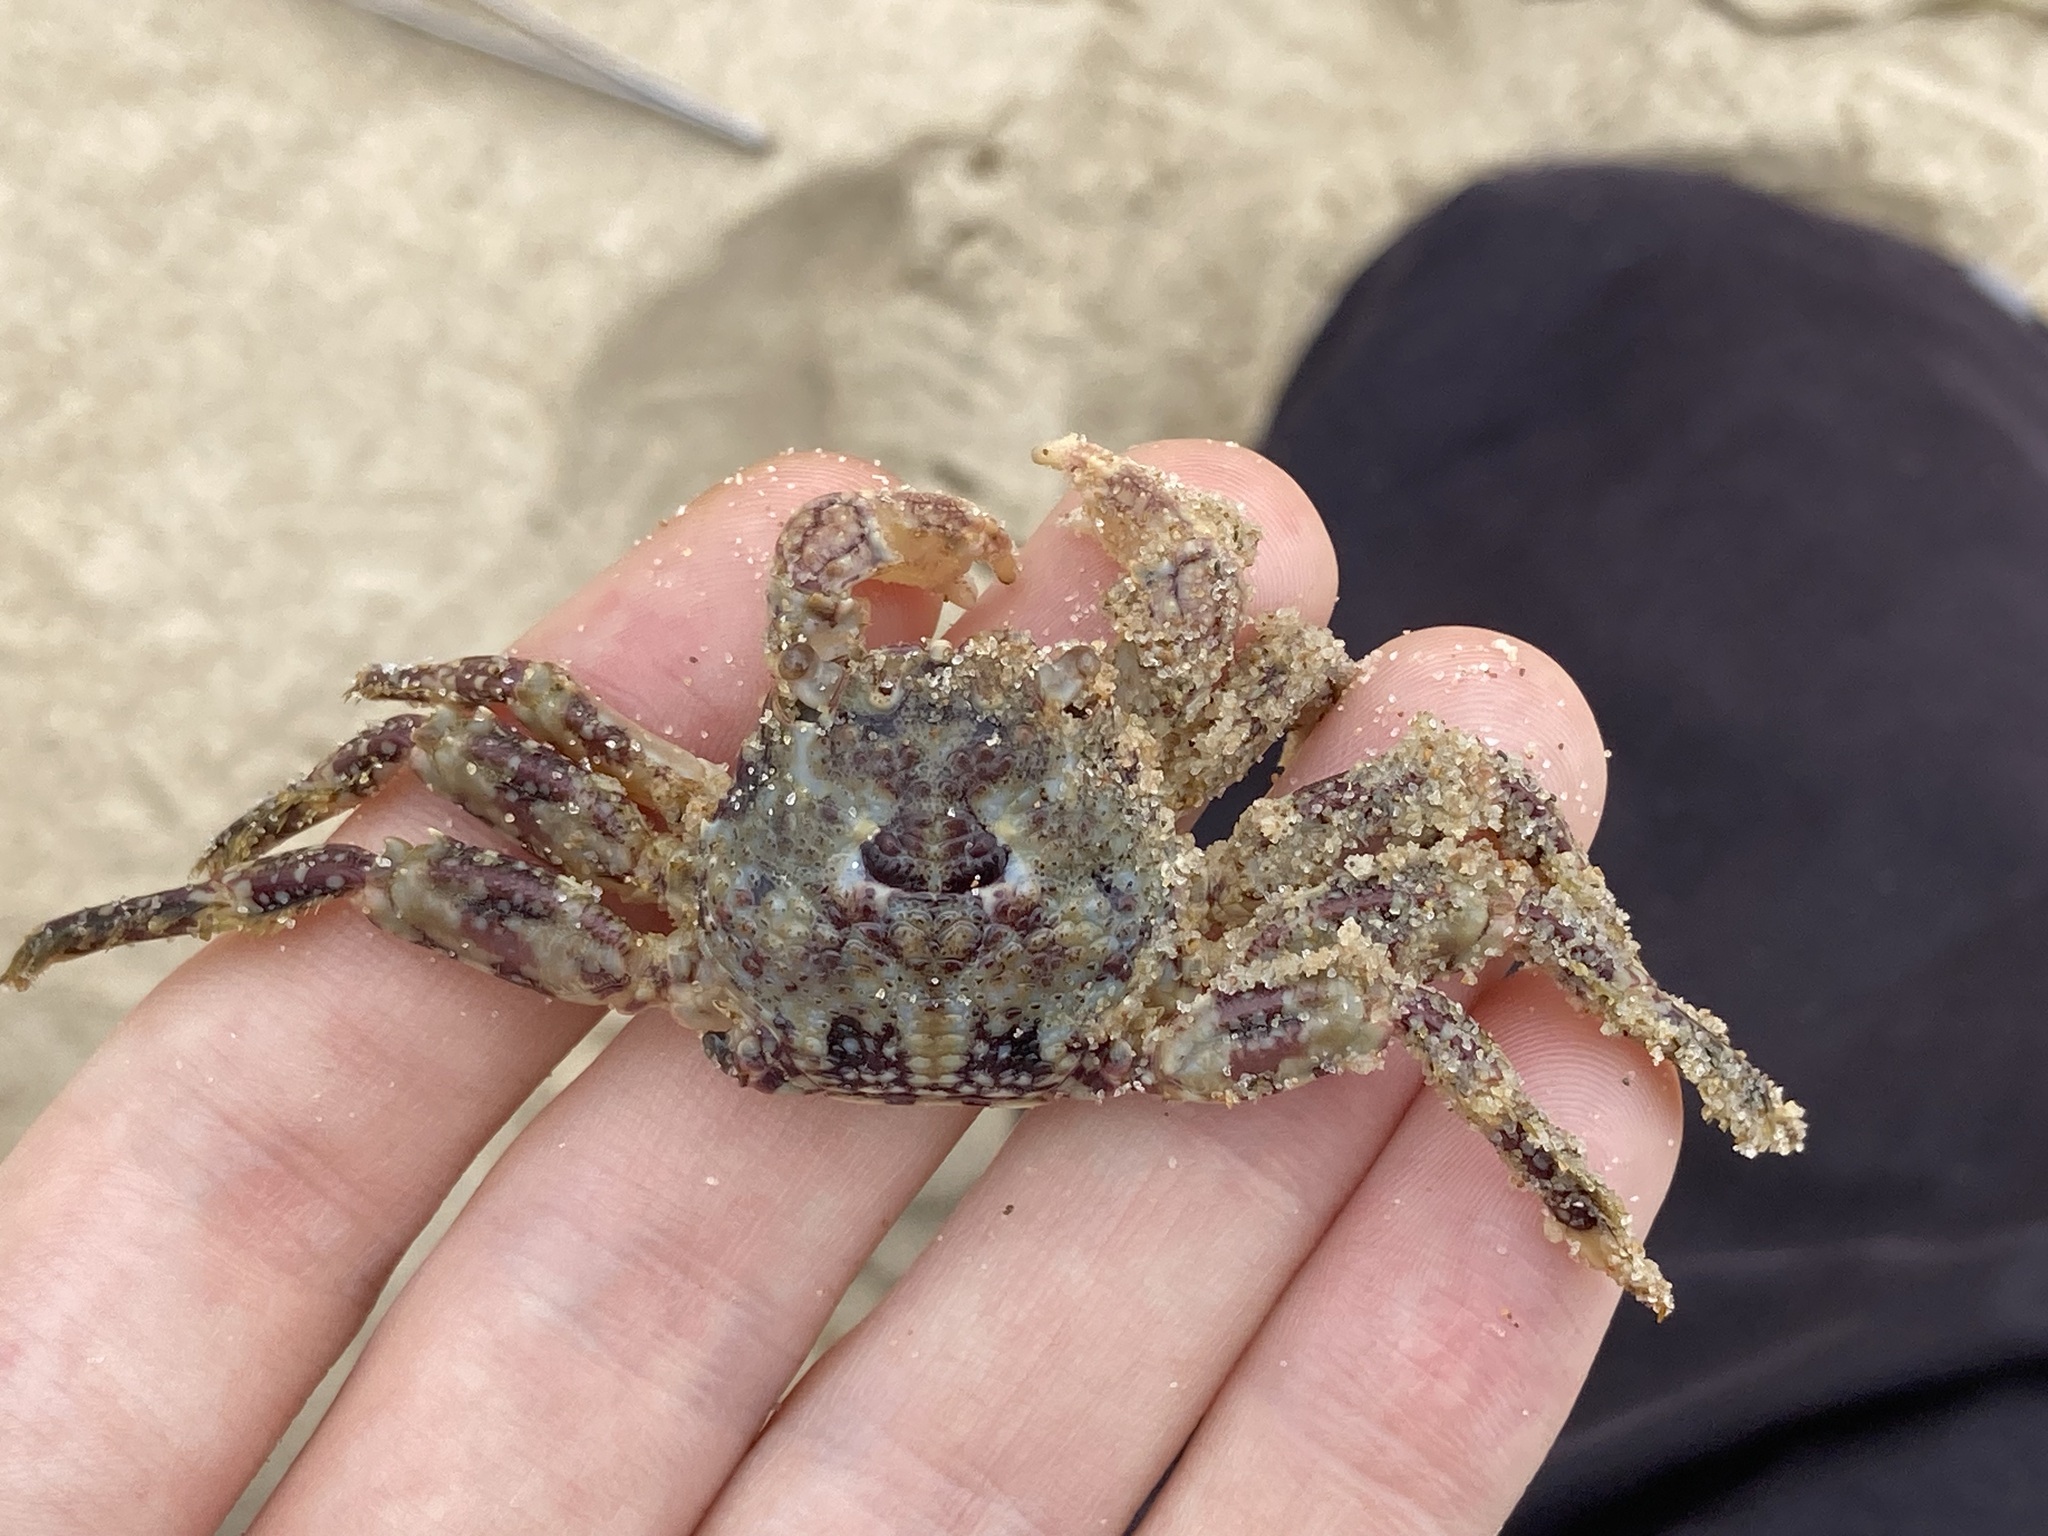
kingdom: Animalia
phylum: Arthropoda
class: Malacostraca
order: Decapoda
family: Plagusiidae
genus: Plagusia
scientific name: Plagusia squamosa
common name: Scaly rock crab
